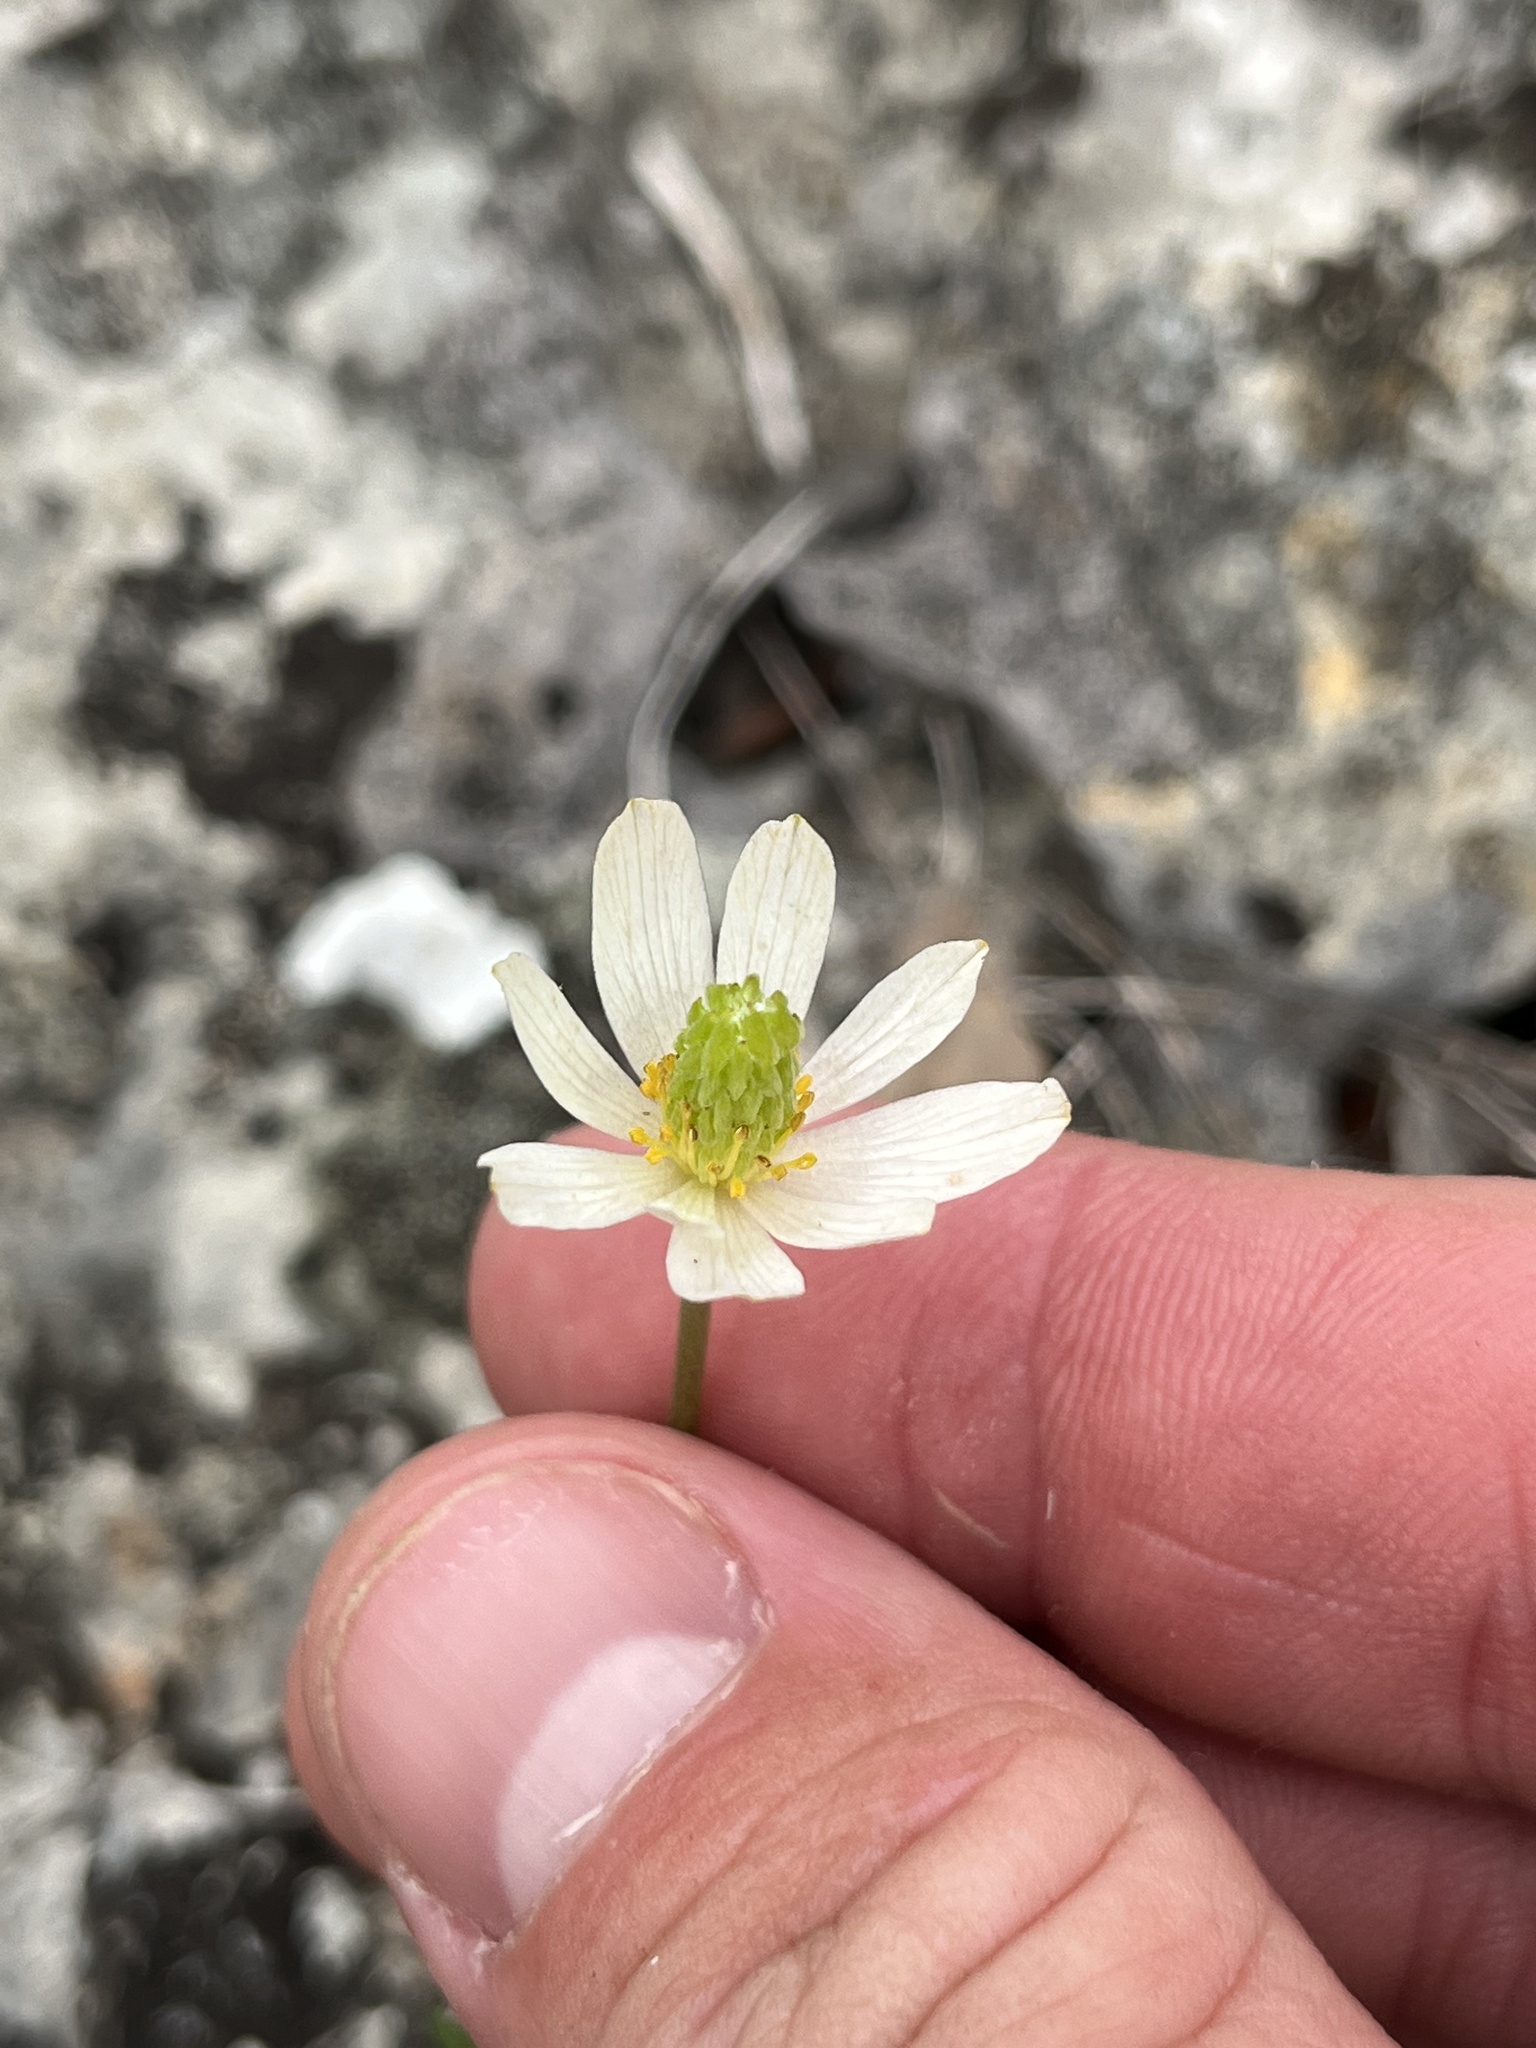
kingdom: Plantae
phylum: Tracheophyta
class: Magnoliopsida
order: Ranunculales
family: Ranunculaceae
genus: Anemone
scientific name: Anemone edwardsiana
